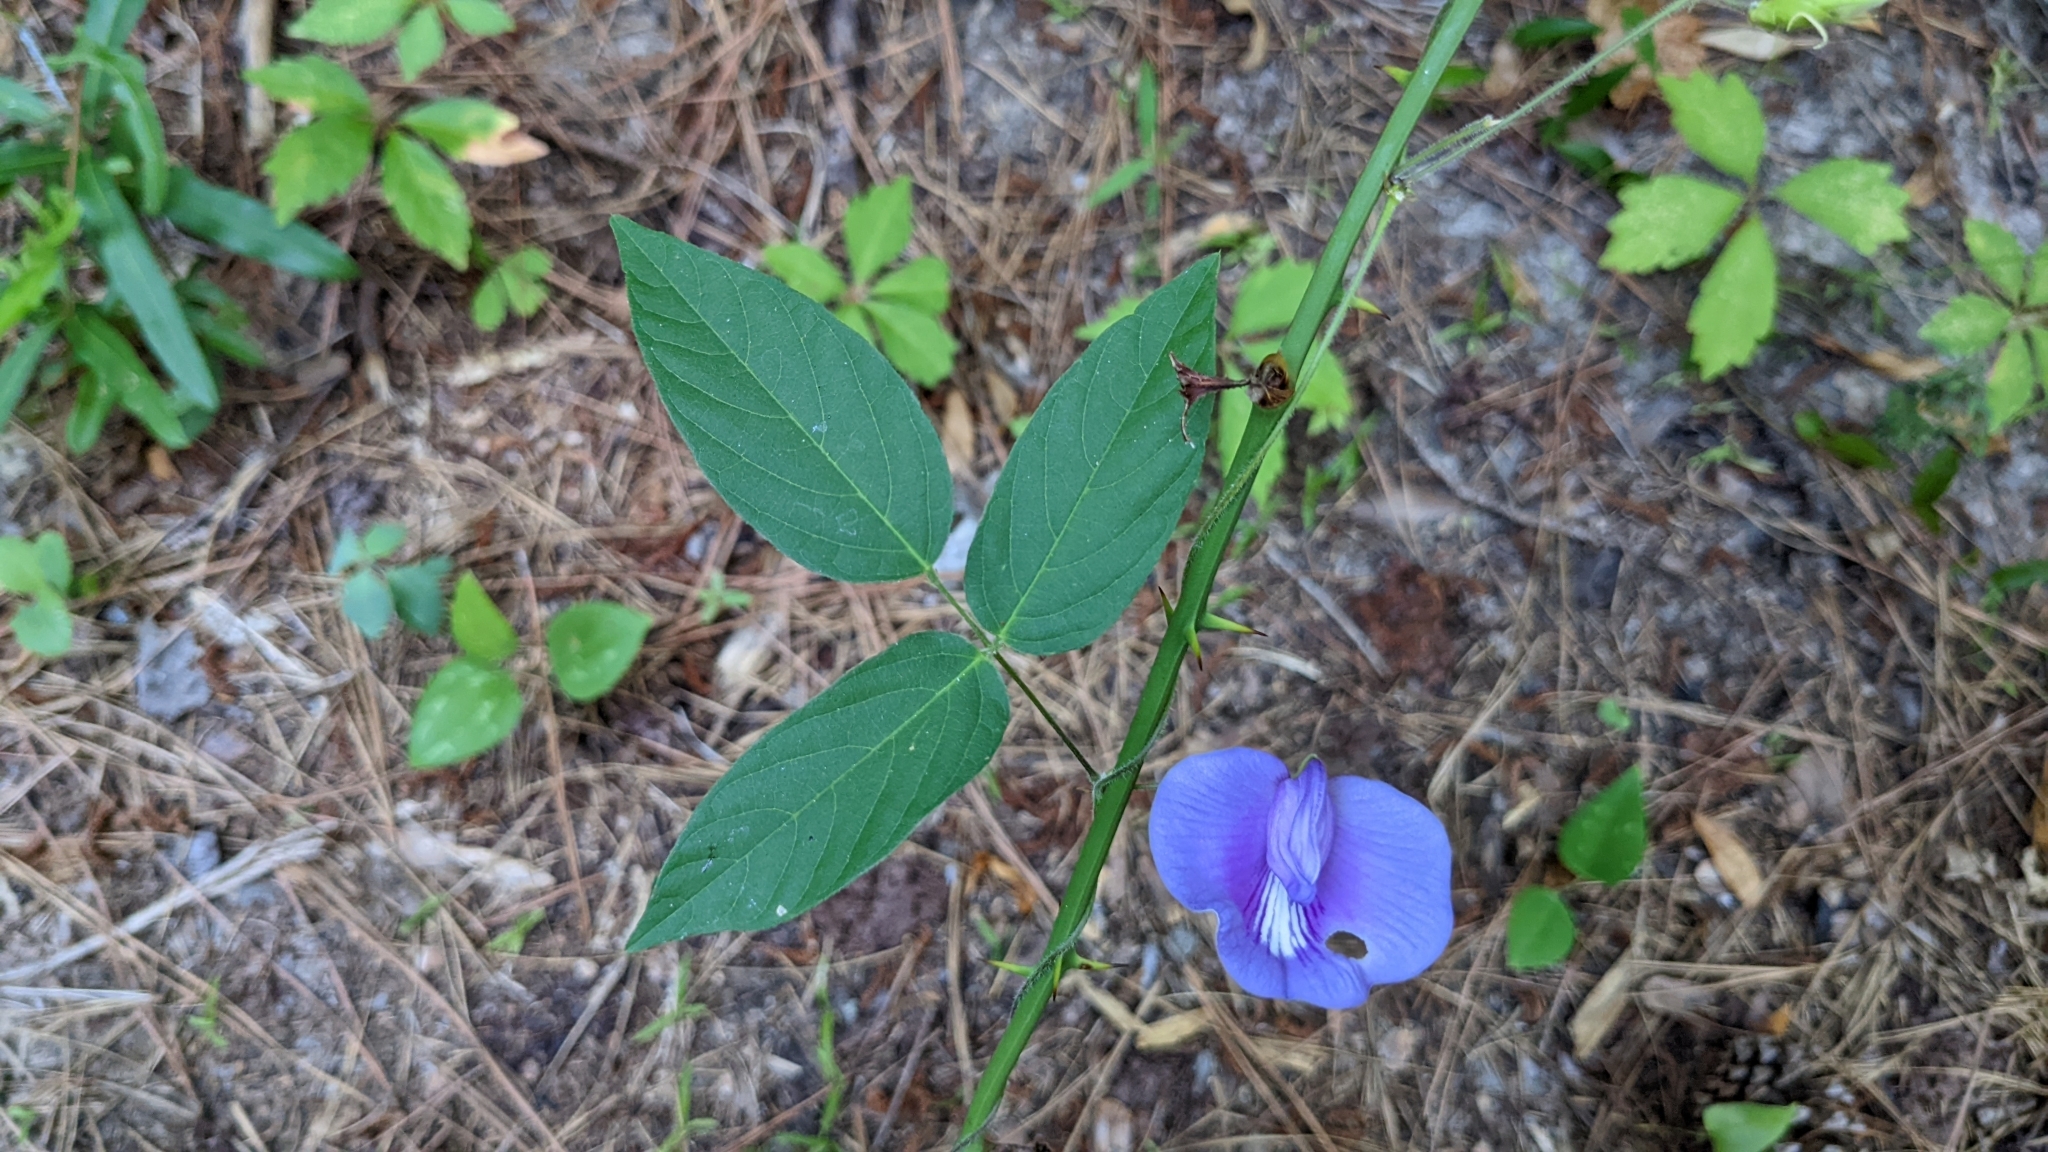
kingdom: Plantae
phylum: Tracheophyta
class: Magnoliopsida
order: Fabales
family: Fabaceae
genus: Centrosema
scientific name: Centrosema virginianum
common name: Butterfly-pea
